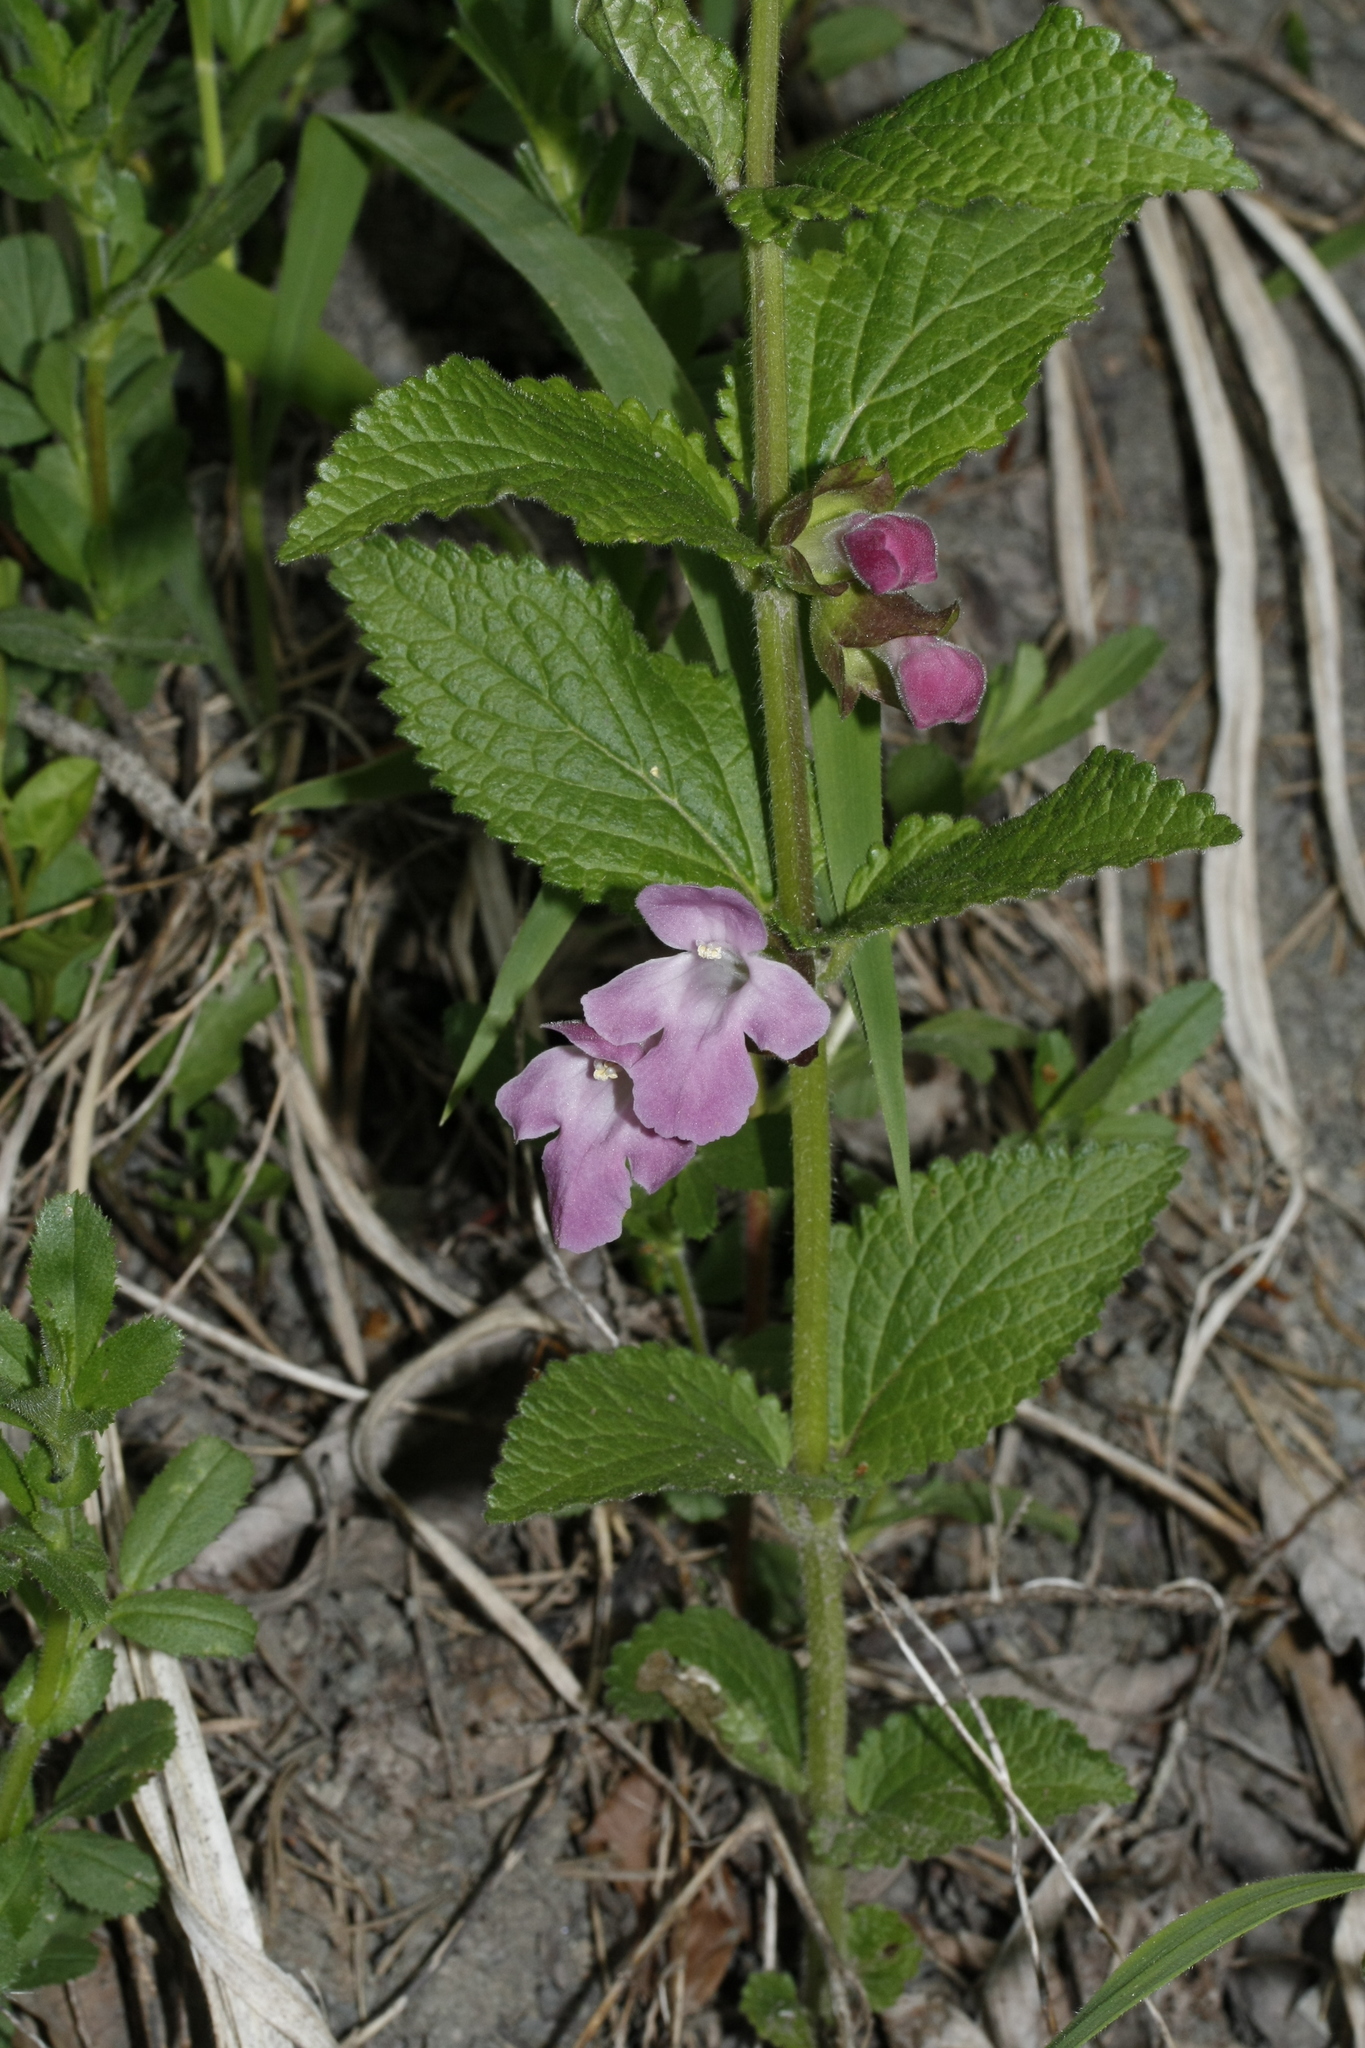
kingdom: Plantae
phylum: Tracheophyta
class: Magnoliopsida
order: Lamiales
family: Lamiaceae
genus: Melittis
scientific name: Melittis melissophyllum
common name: Bastard balm
